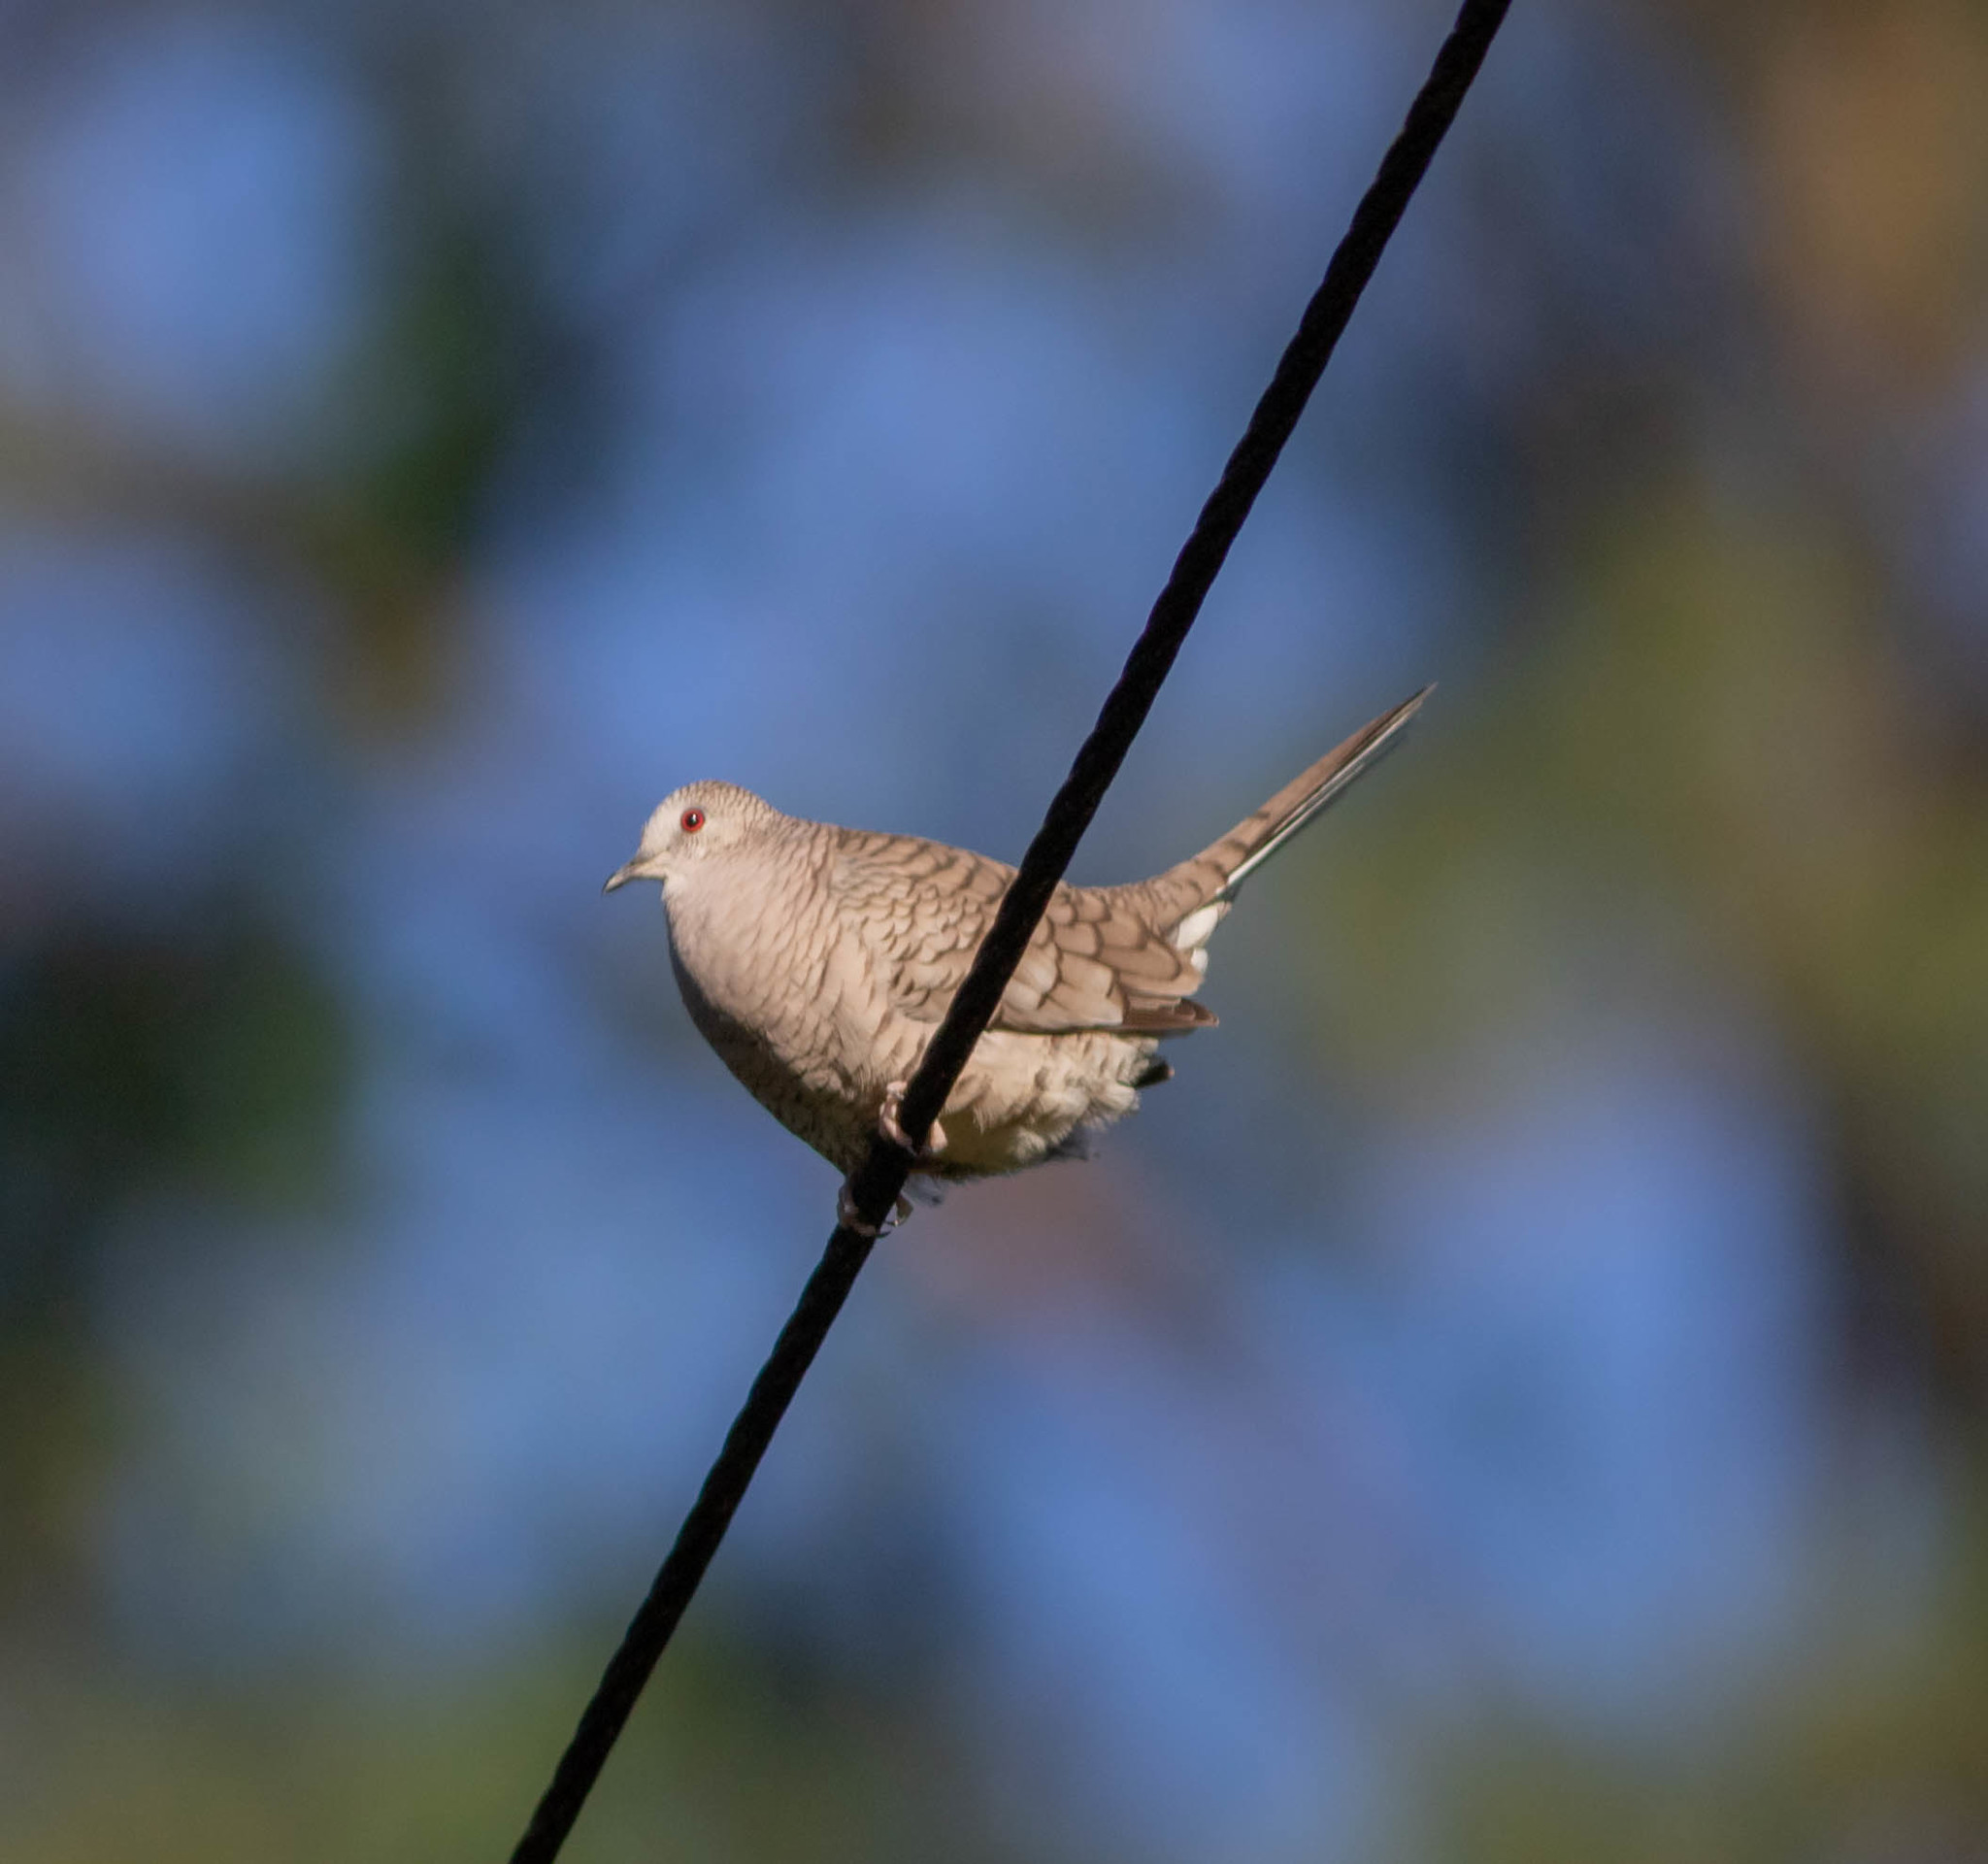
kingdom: Animalia
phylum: Chordata
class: Aves
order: Columbiformes
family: Columbidae
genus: Columbina
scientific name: Columbina inca
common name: Inca dove
